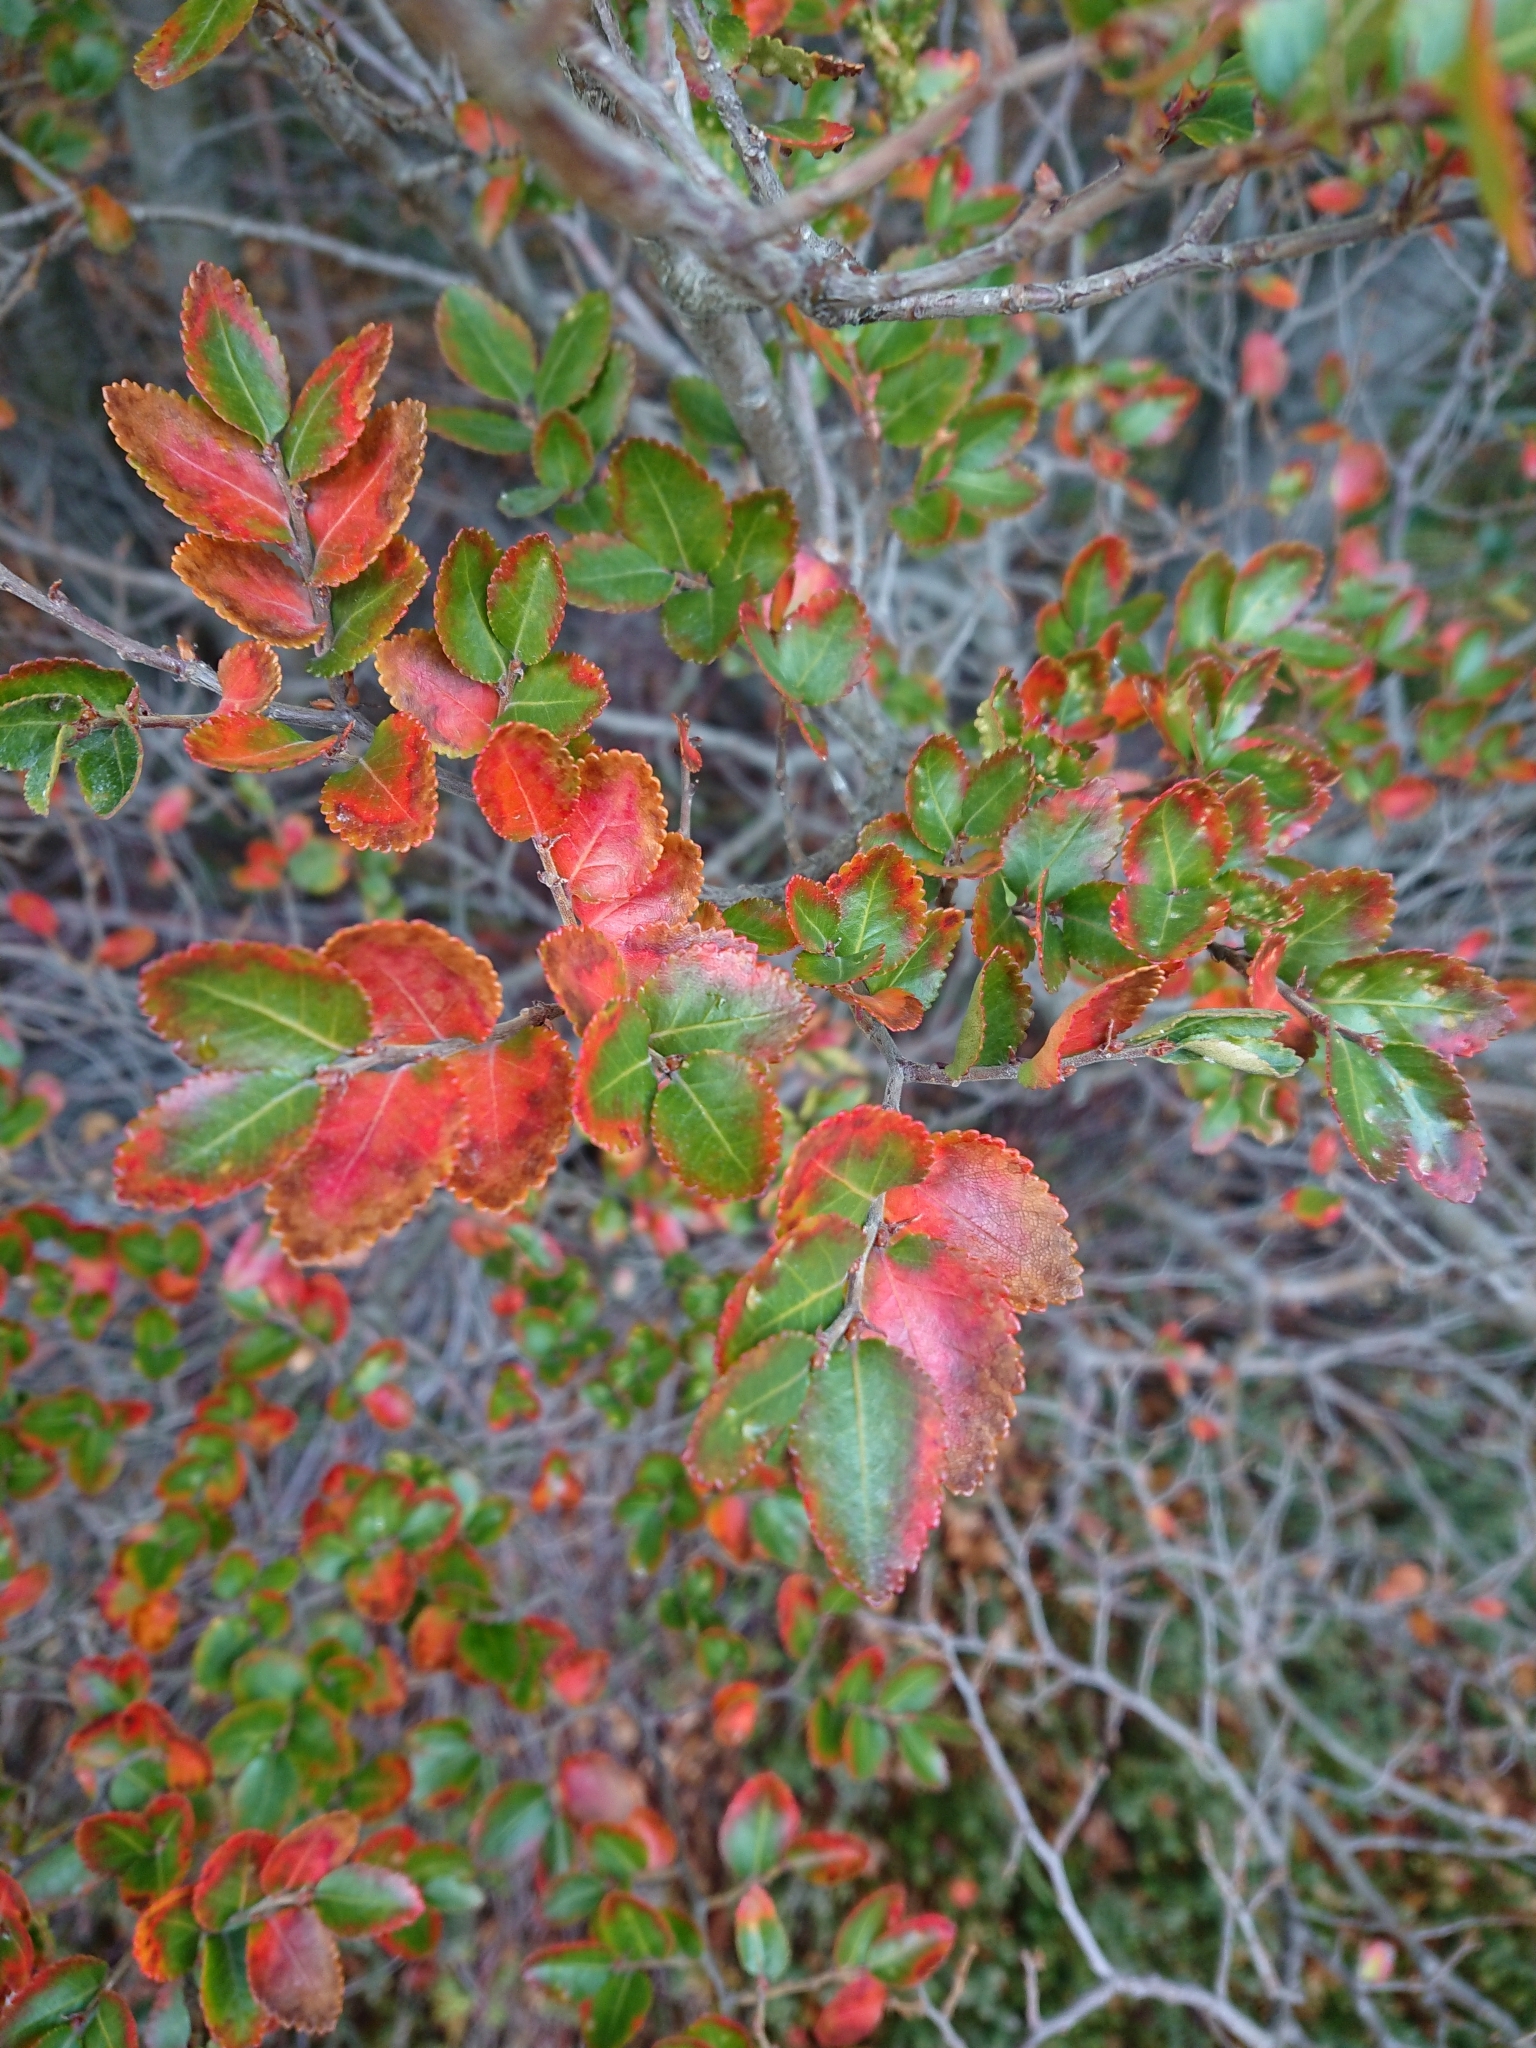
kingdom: Plantae
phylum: Tracheophyta
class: Magnoliopsida
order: Fagales
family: Nothofagaceae
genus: Nothofagus
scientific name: Nothofagus betuloides
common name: Magellan's beech
